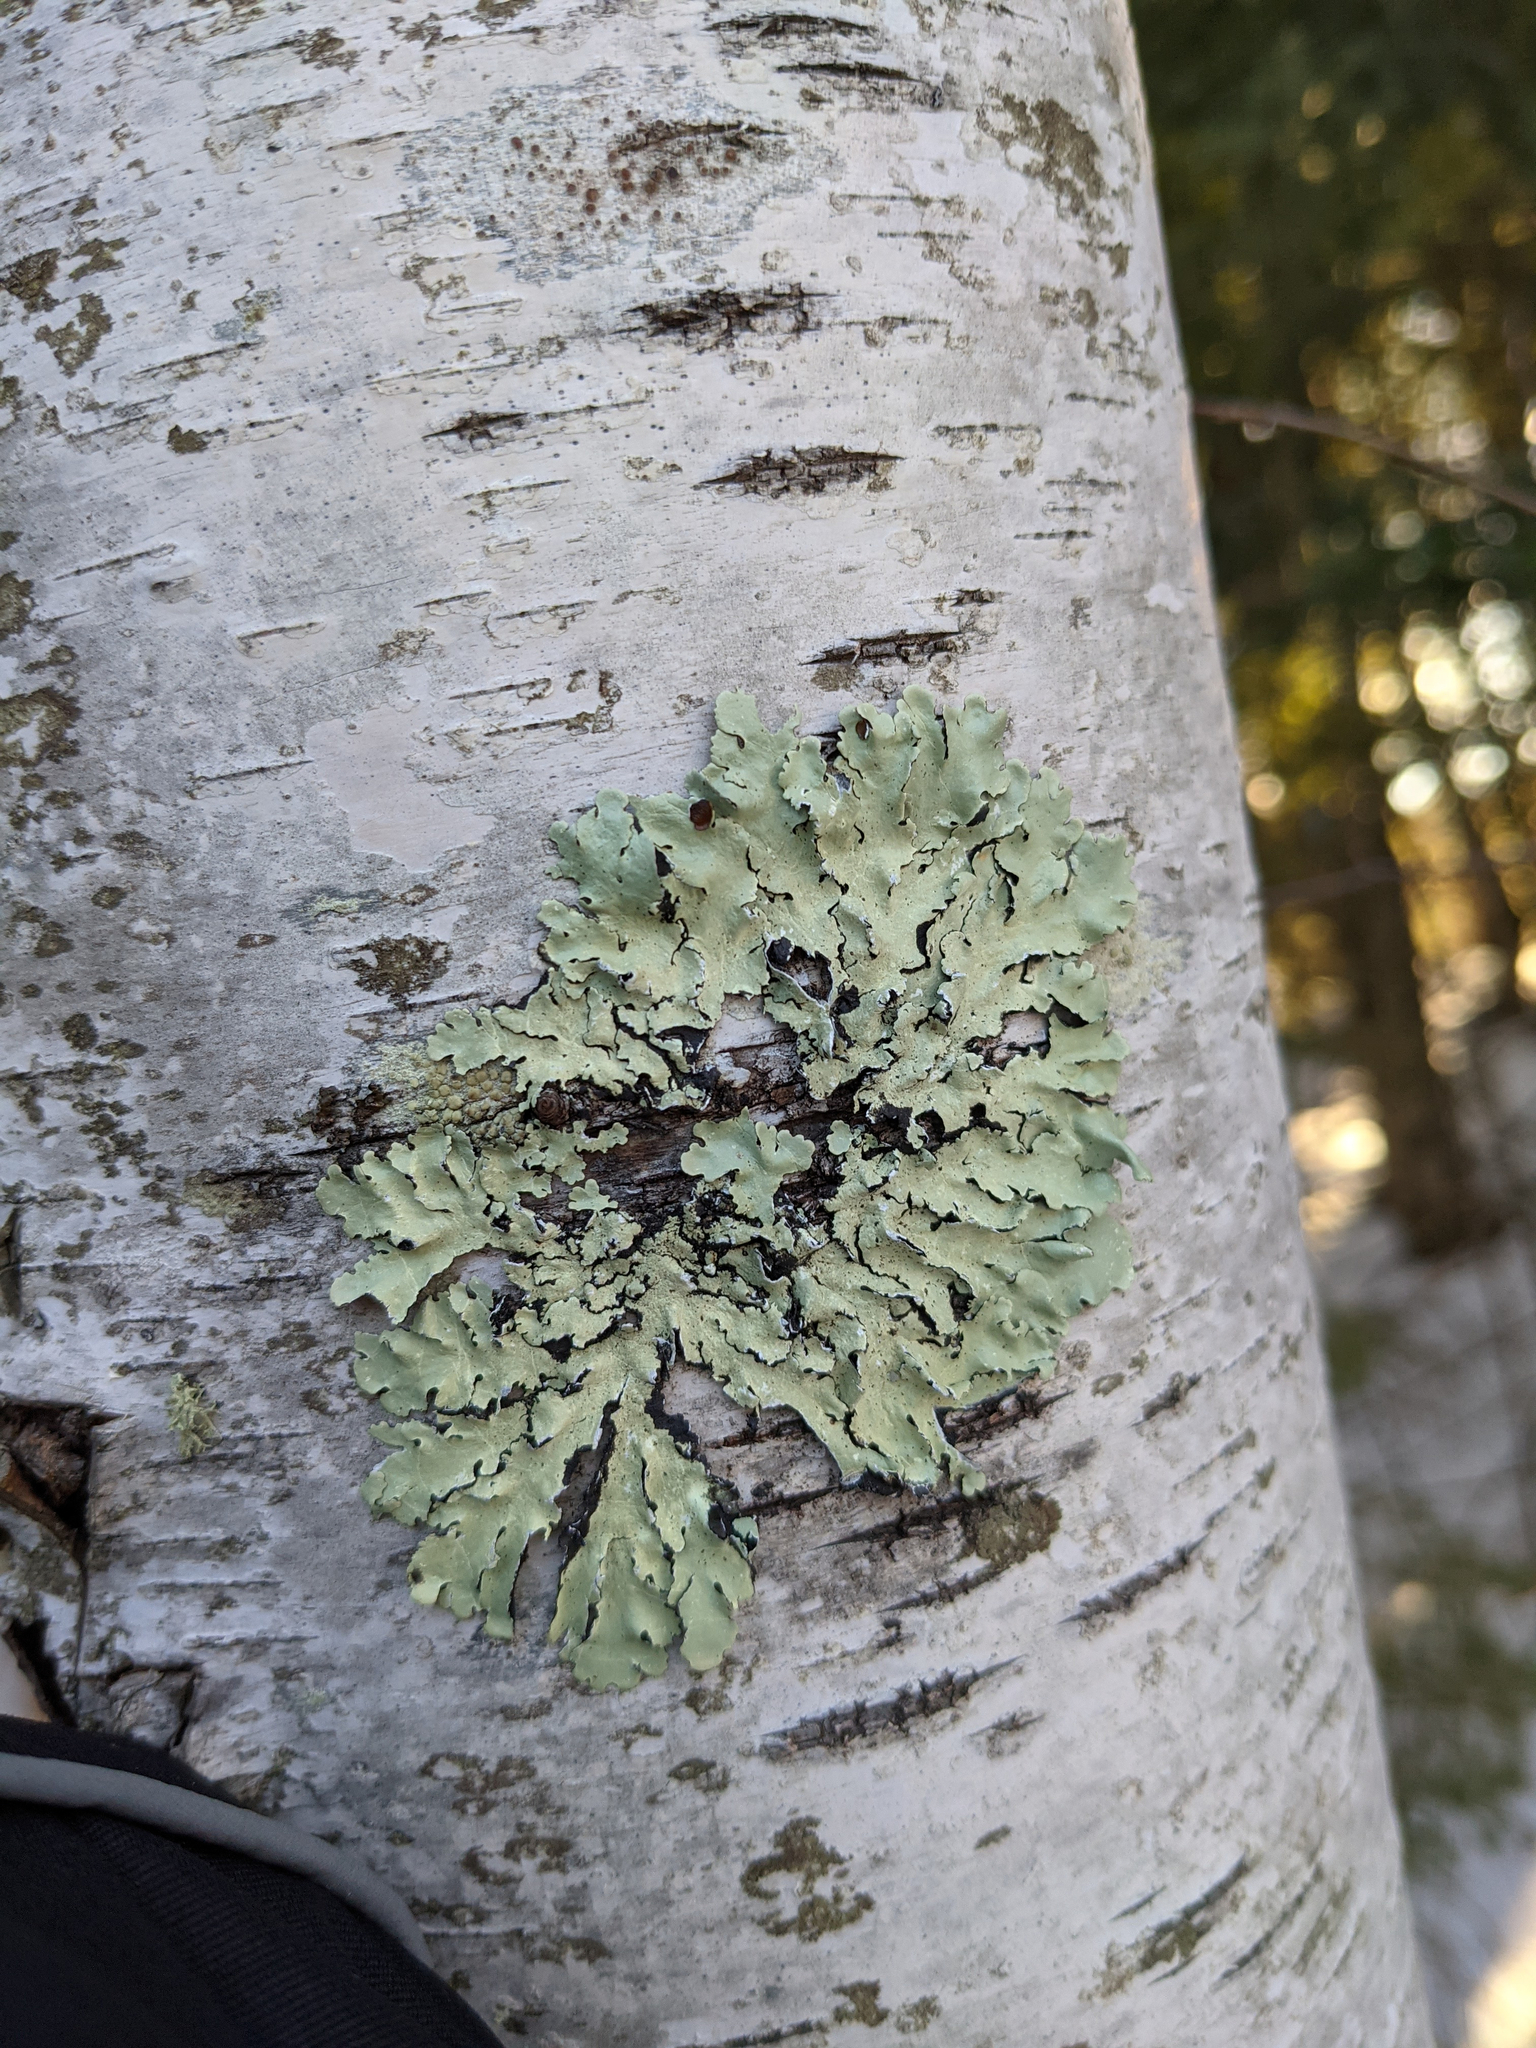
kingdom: Fungi
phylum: Ascomycota
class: Lecanoromycetes
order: Lecanorales
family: Parmeliaceae
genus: Flavoparmelia
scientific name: Flavoparmelia caperata
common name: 40-mile per hour lichen
